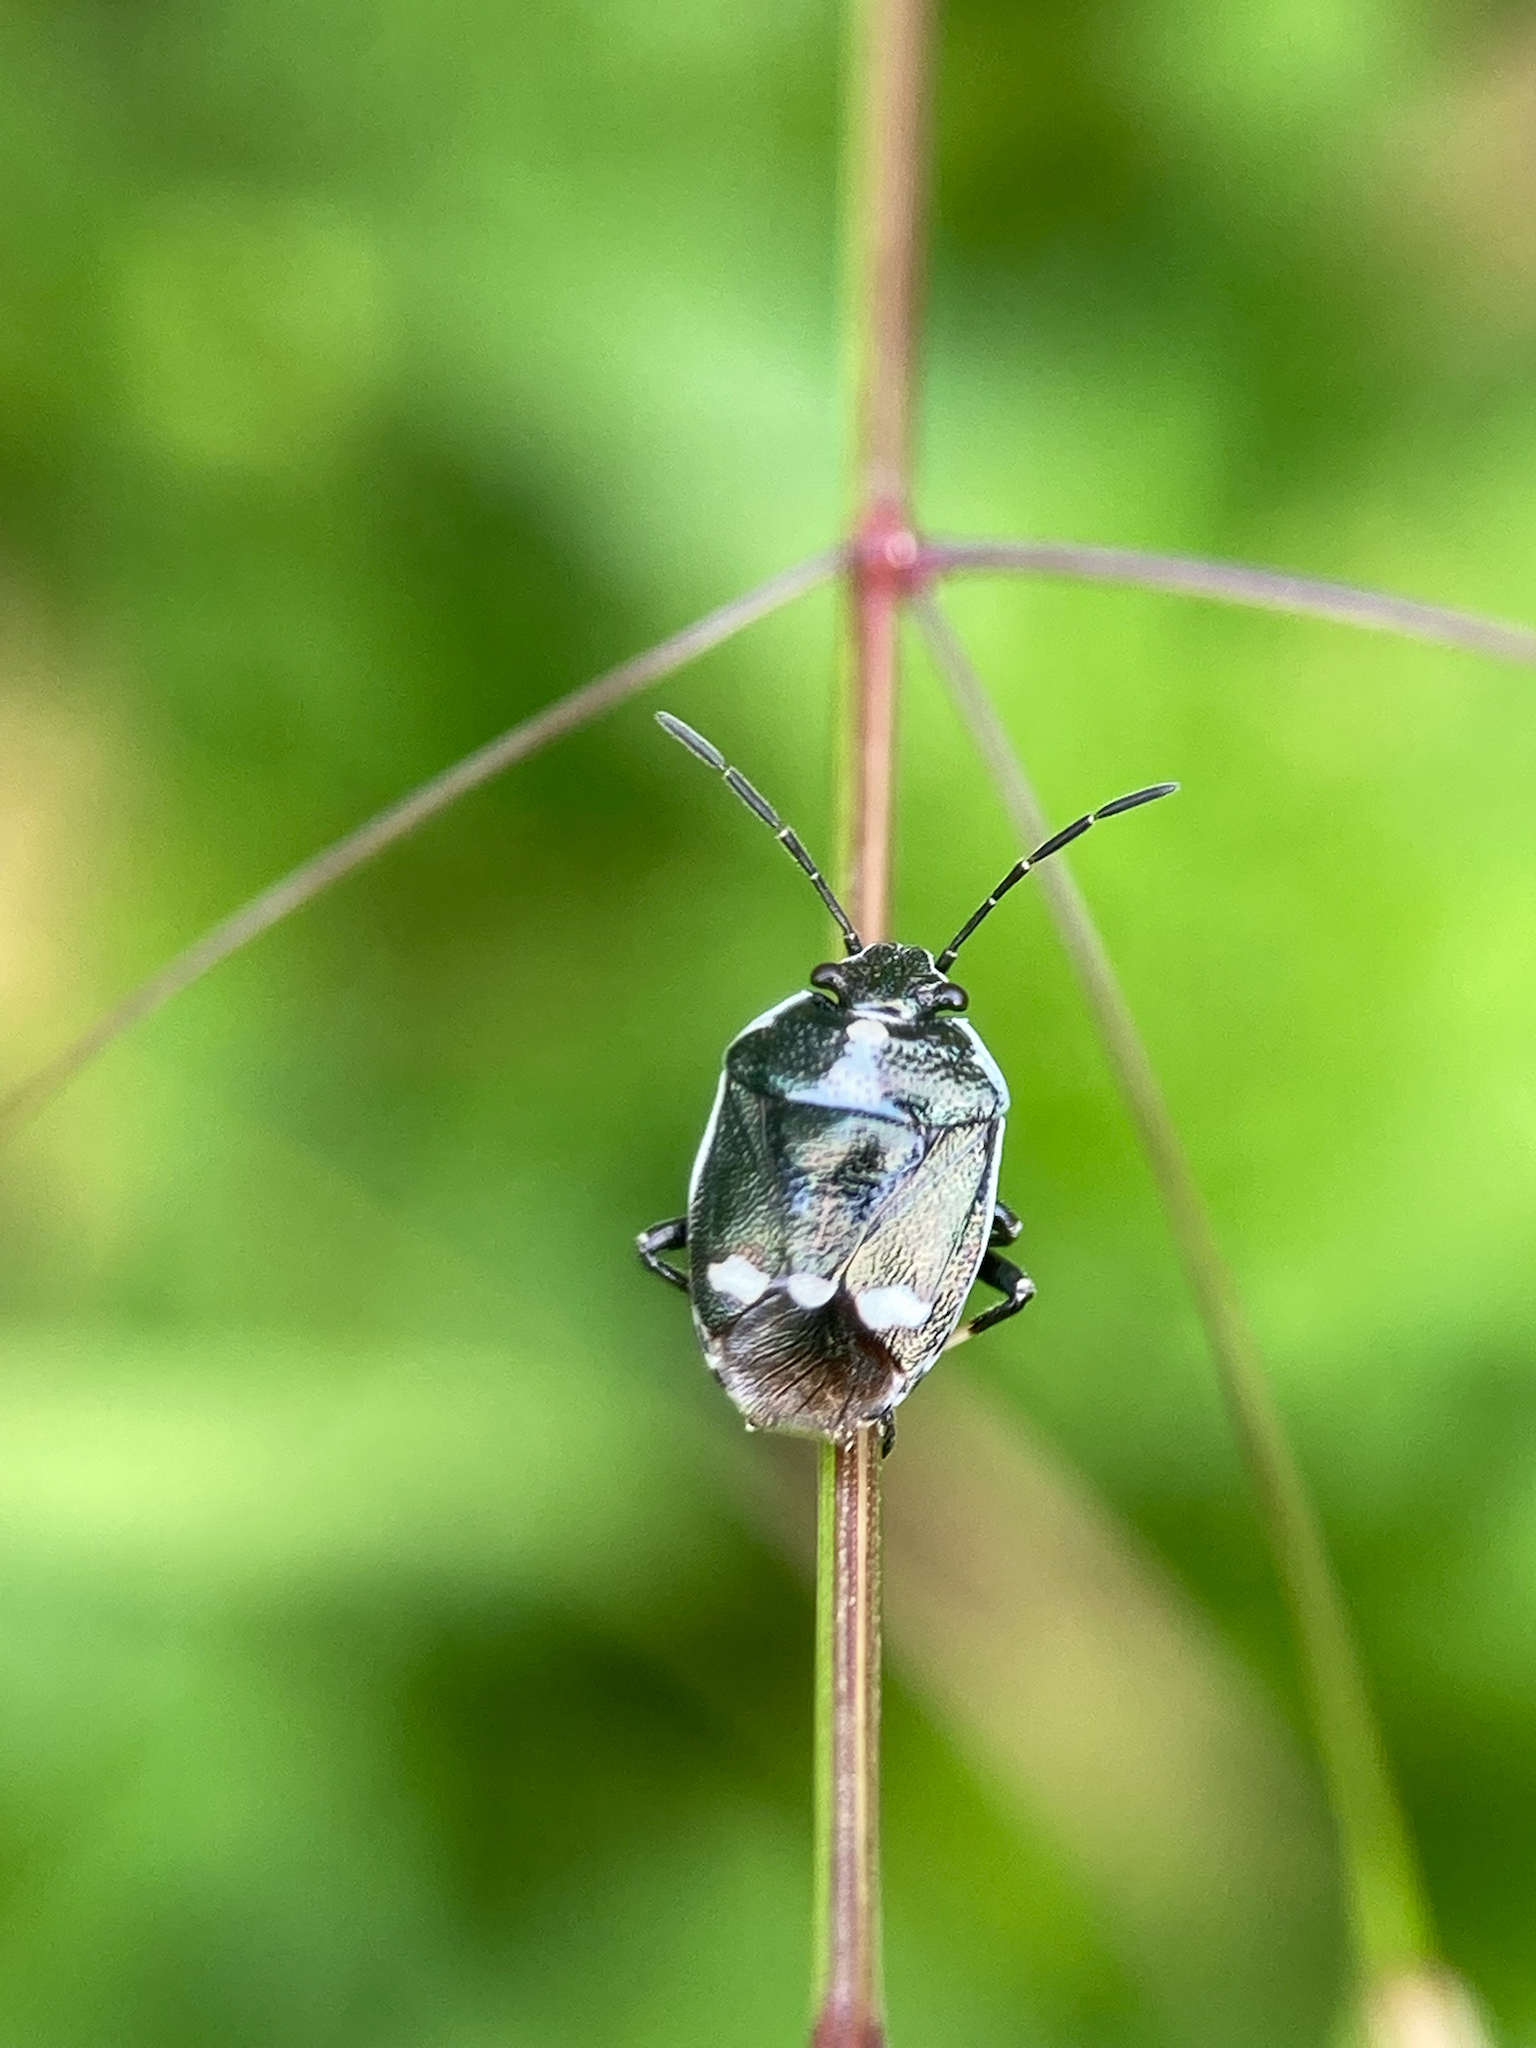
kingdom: Animalia
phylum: Arthropoda
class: Insecta
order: Hemiptera
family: Pentatomidae
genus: Eurydema
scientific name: Eurydema oleracea
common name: Cabbage bug
